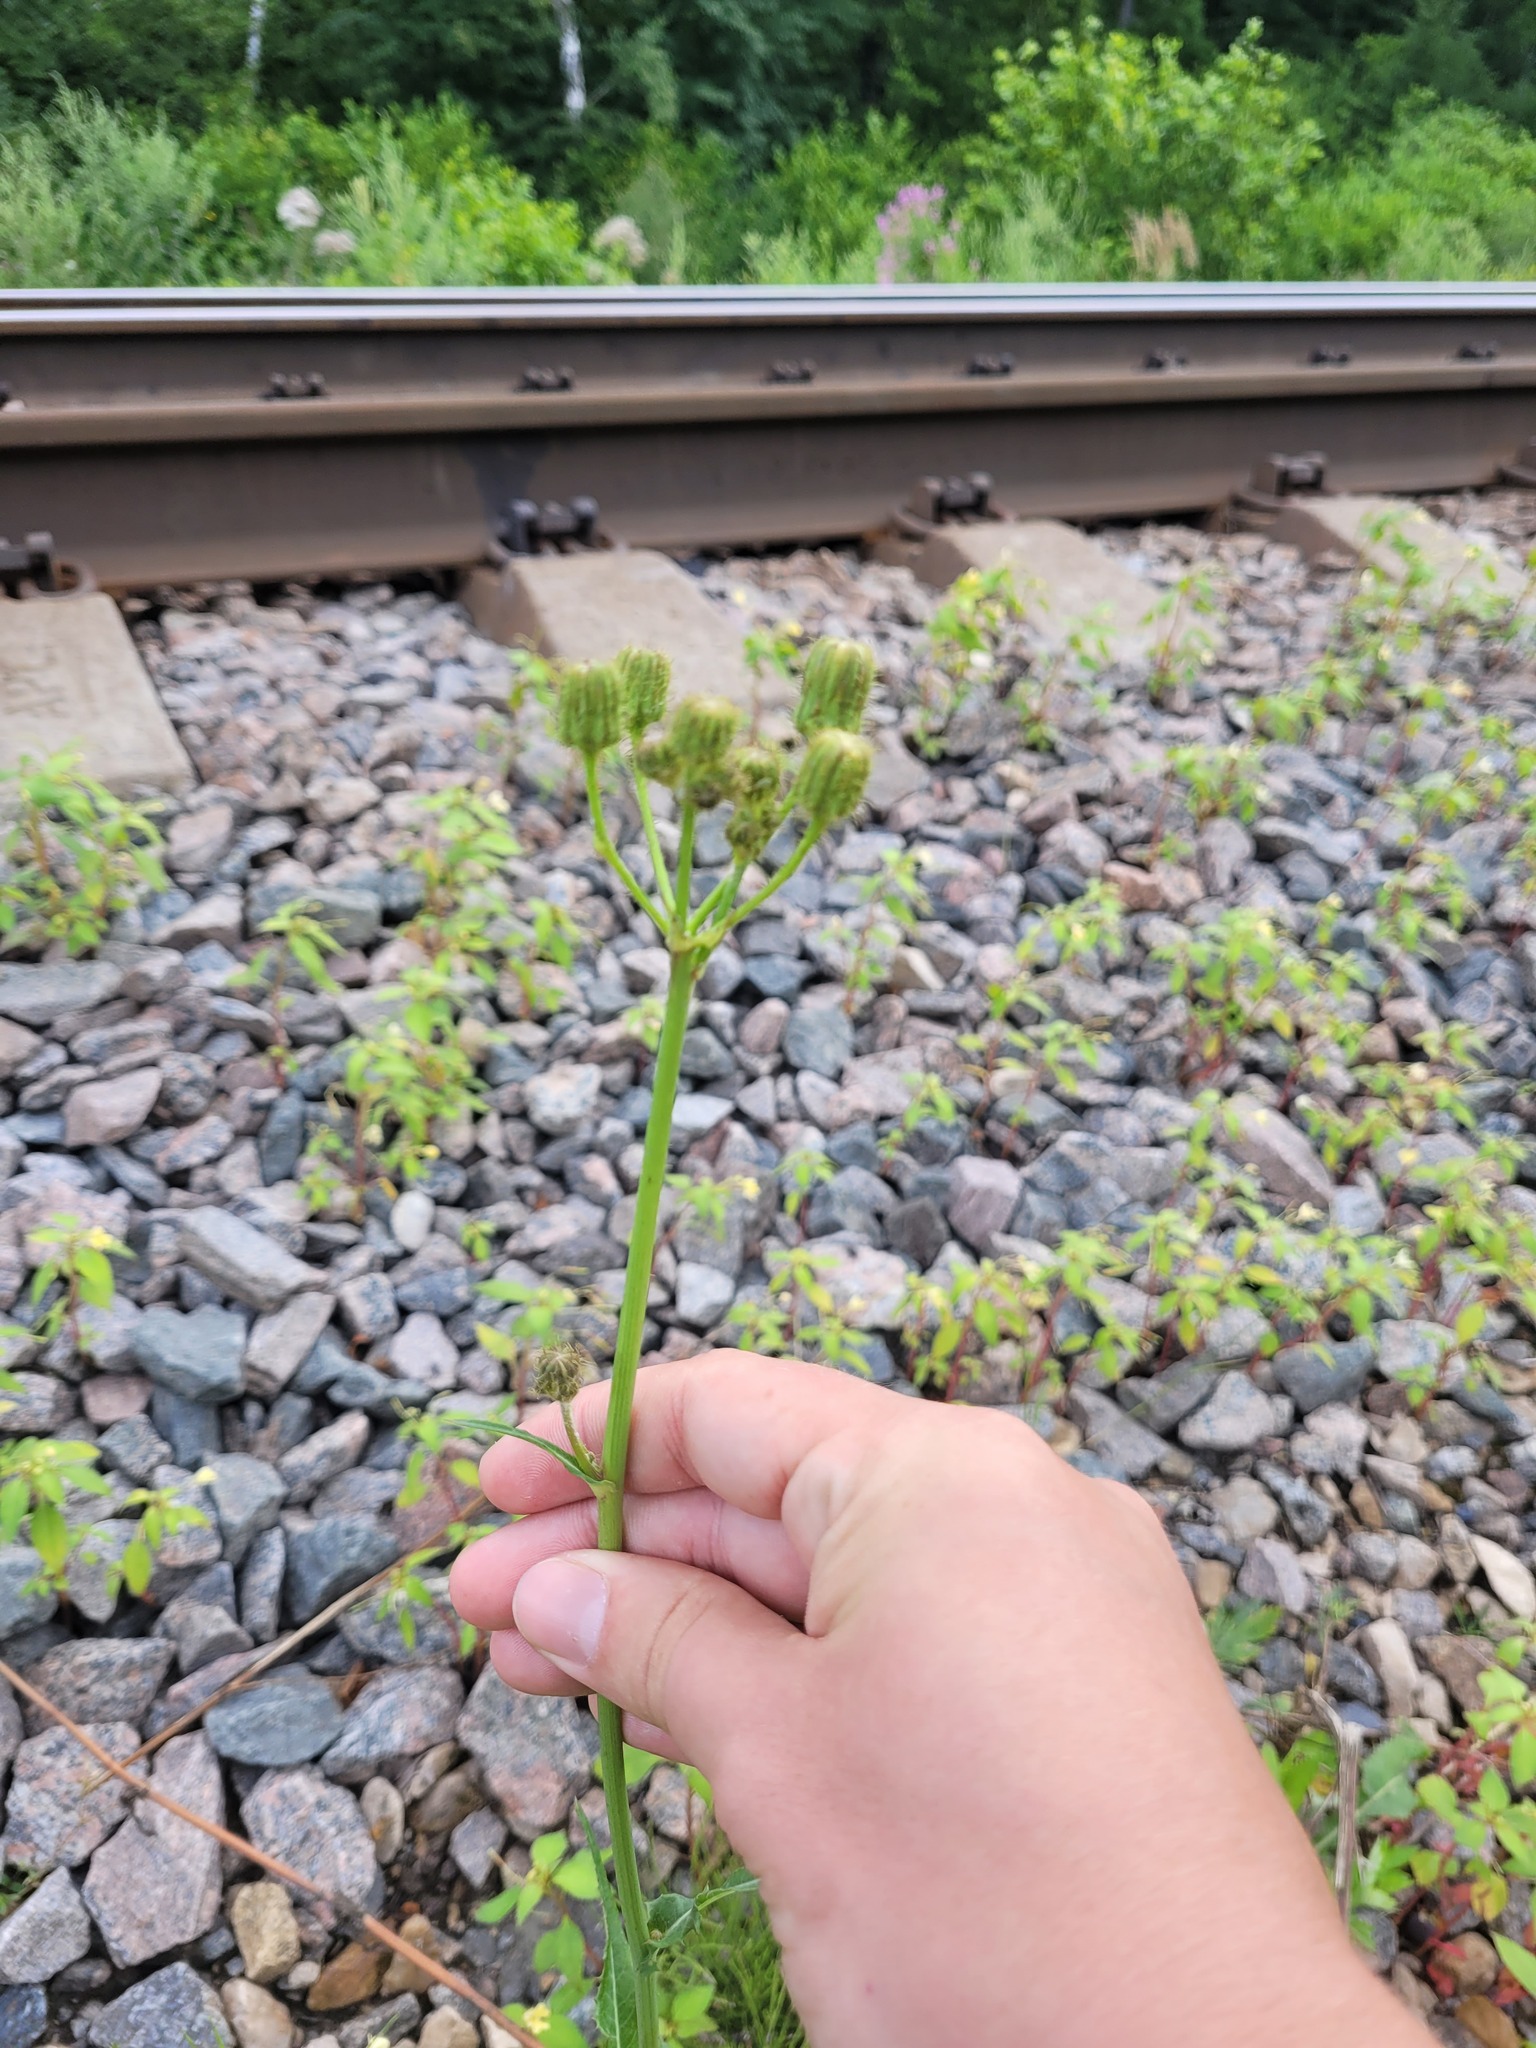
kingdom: Plantae
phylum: Tracheophyta
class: Magnoliopsida
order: Asterales
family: Asteraceae
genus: Sonchus
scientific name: Sonchus arvensis
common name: Perennial sow-thistle
